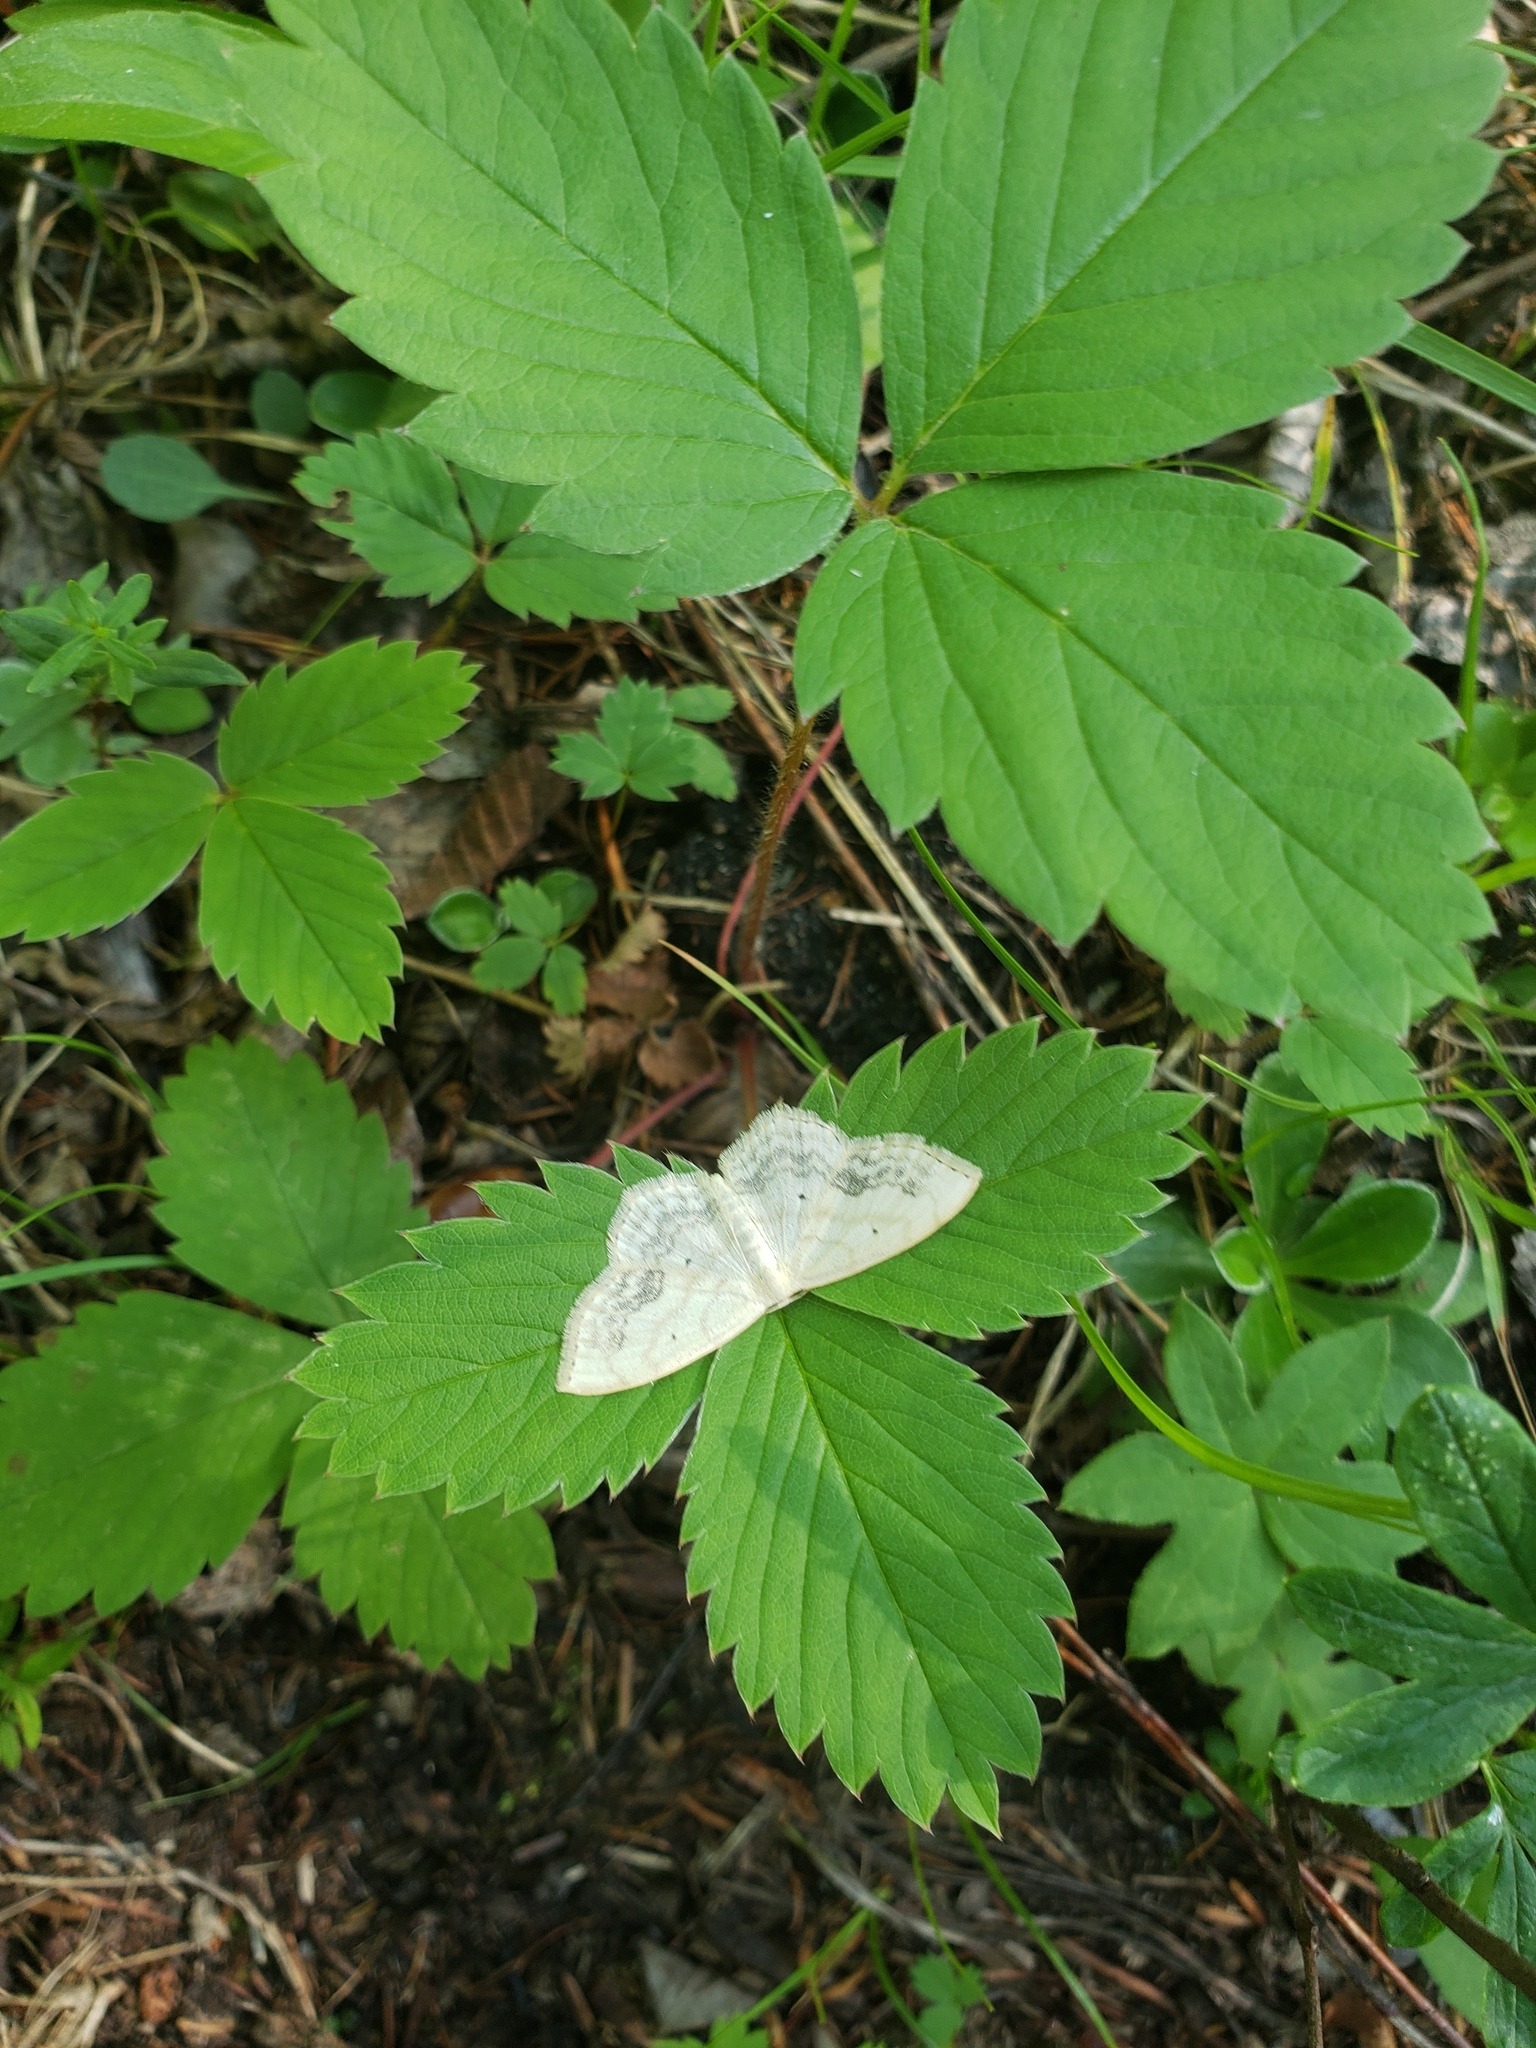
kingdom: Animalia
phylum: Arthropoda
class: Insecta
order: Lepidoptera
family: Geometridae
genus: Scopula
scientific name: Scopula limboundata
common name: Large lace border
